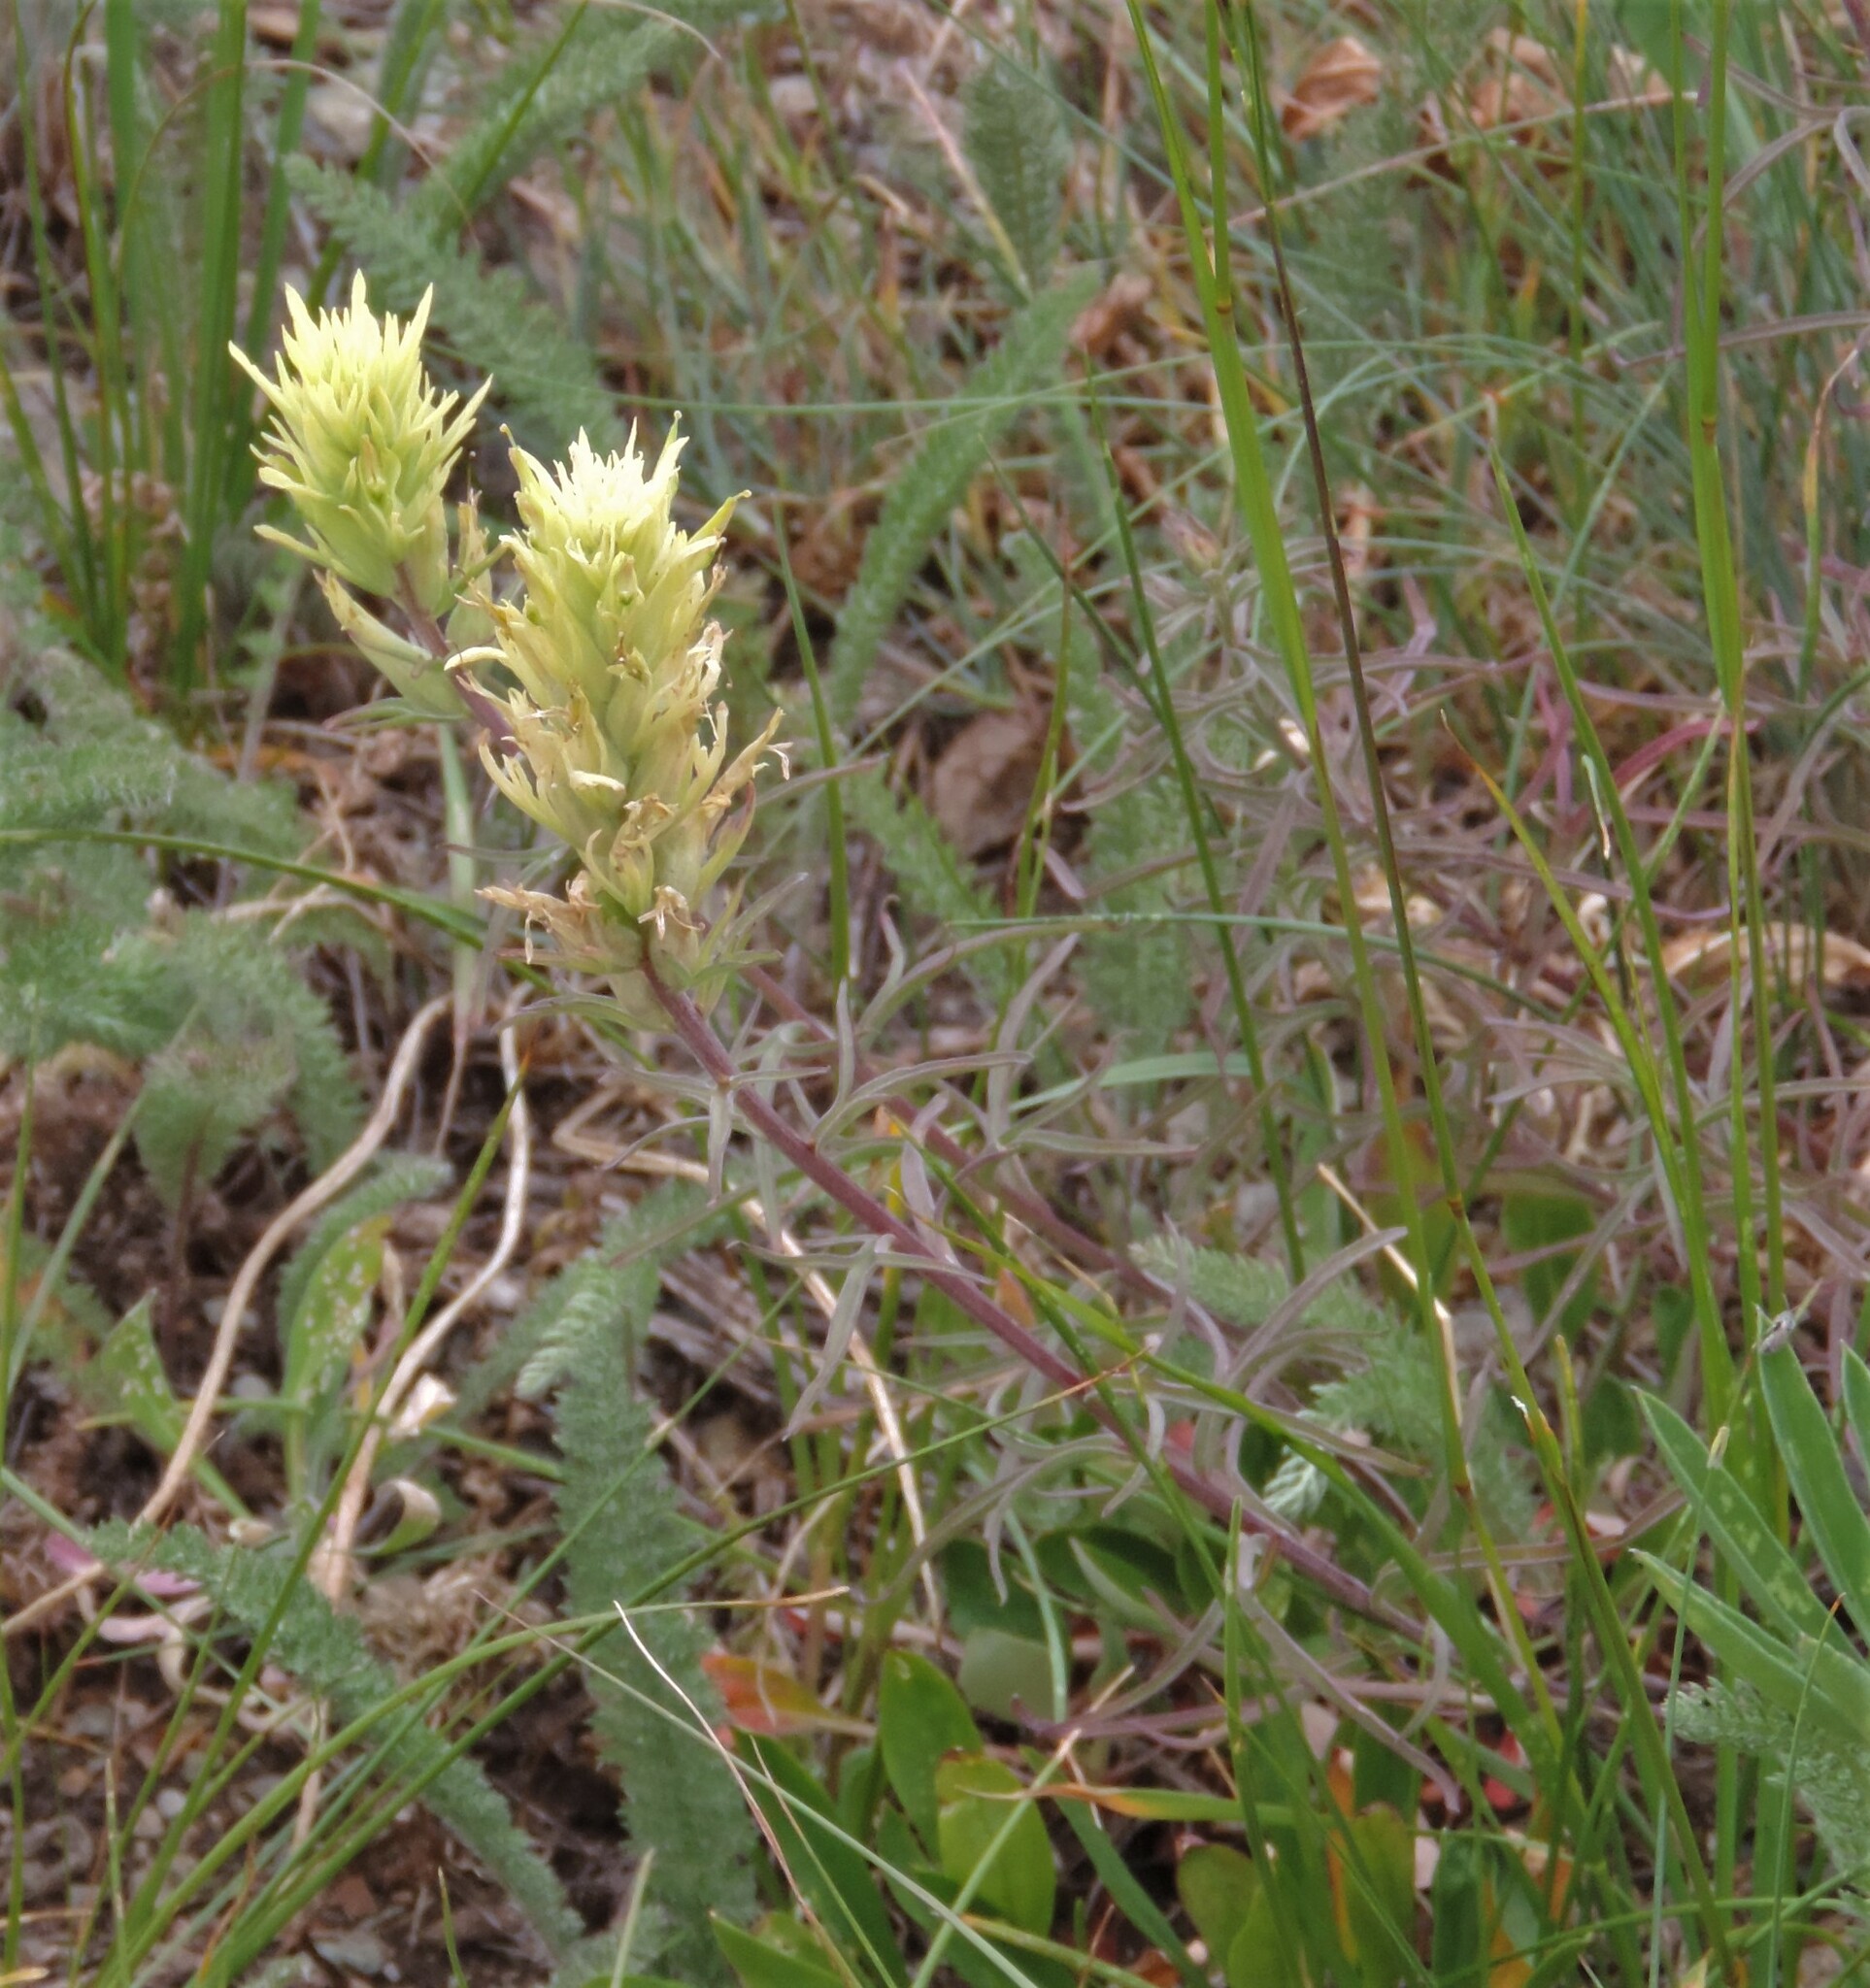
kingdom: Plantae
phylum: Tracheophyta
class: Magnoliopsida
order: Lamiales
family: Orobanchaceae
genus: Castilleja
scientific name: Castilleja thompsonii
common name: Thompson's paintbrush
